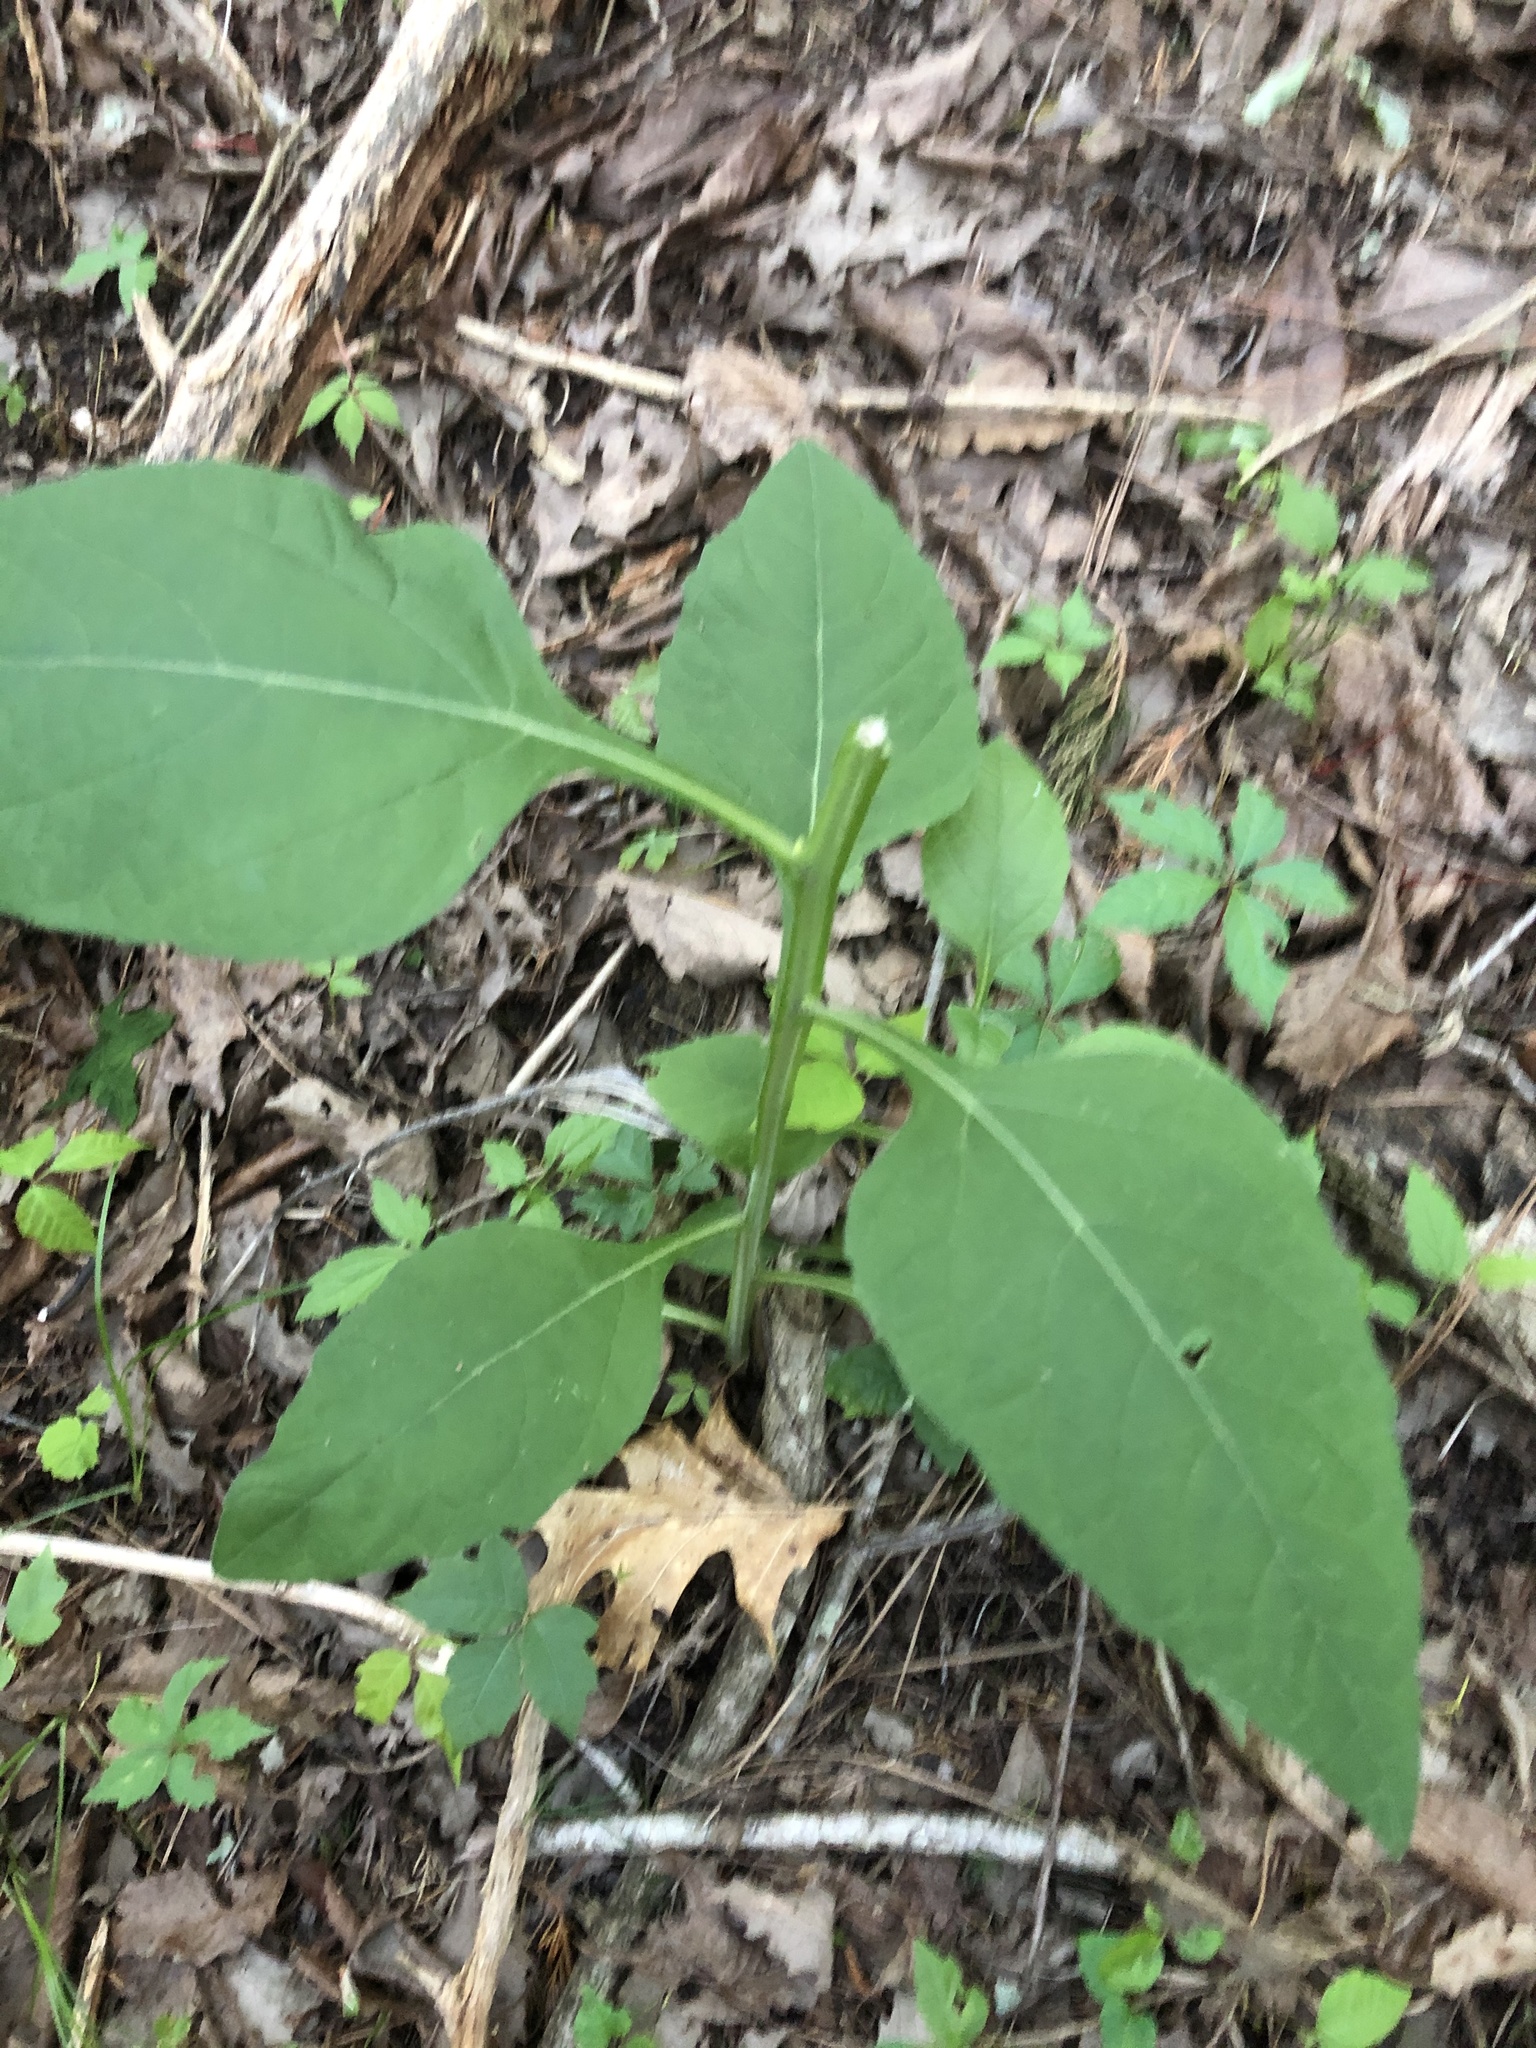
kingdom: Plantae
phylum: Tracheophyta
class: Magnoliopsida
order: Asterales
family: Asteraceae
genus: Verbesina
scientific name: Verbesina virginica
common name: Frostweed
